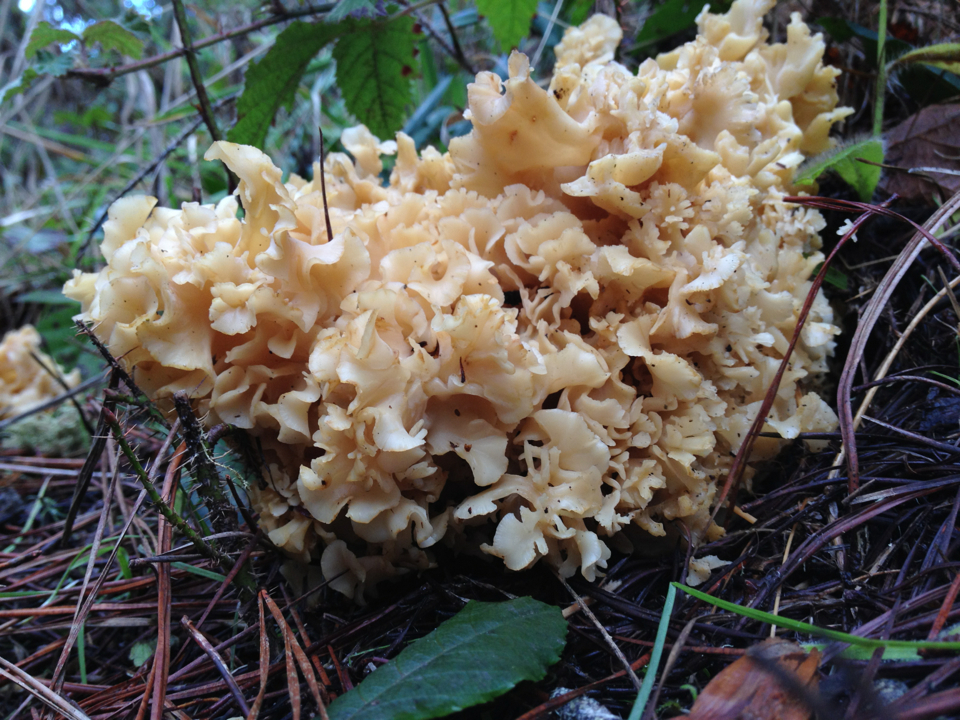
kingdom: Fungi
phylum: Basidiomycota
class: Agaricomycetes
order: Polyporales
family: Sparassidaceae
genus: Sparassis
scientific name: Sparassis radicata
